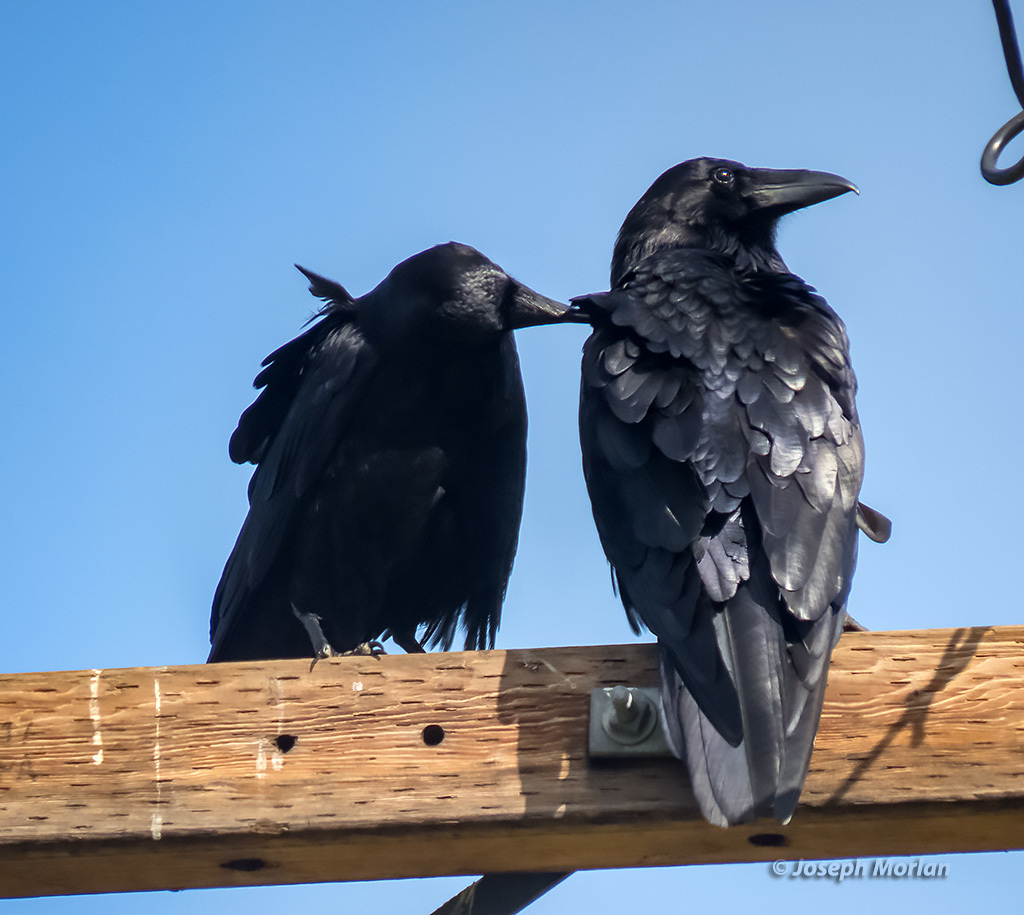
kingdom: Animalia
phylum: Chordata
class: Aves
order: Passeriformes
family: Corvidae
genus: Corvus
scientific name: Corvus corax
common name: Common raven
